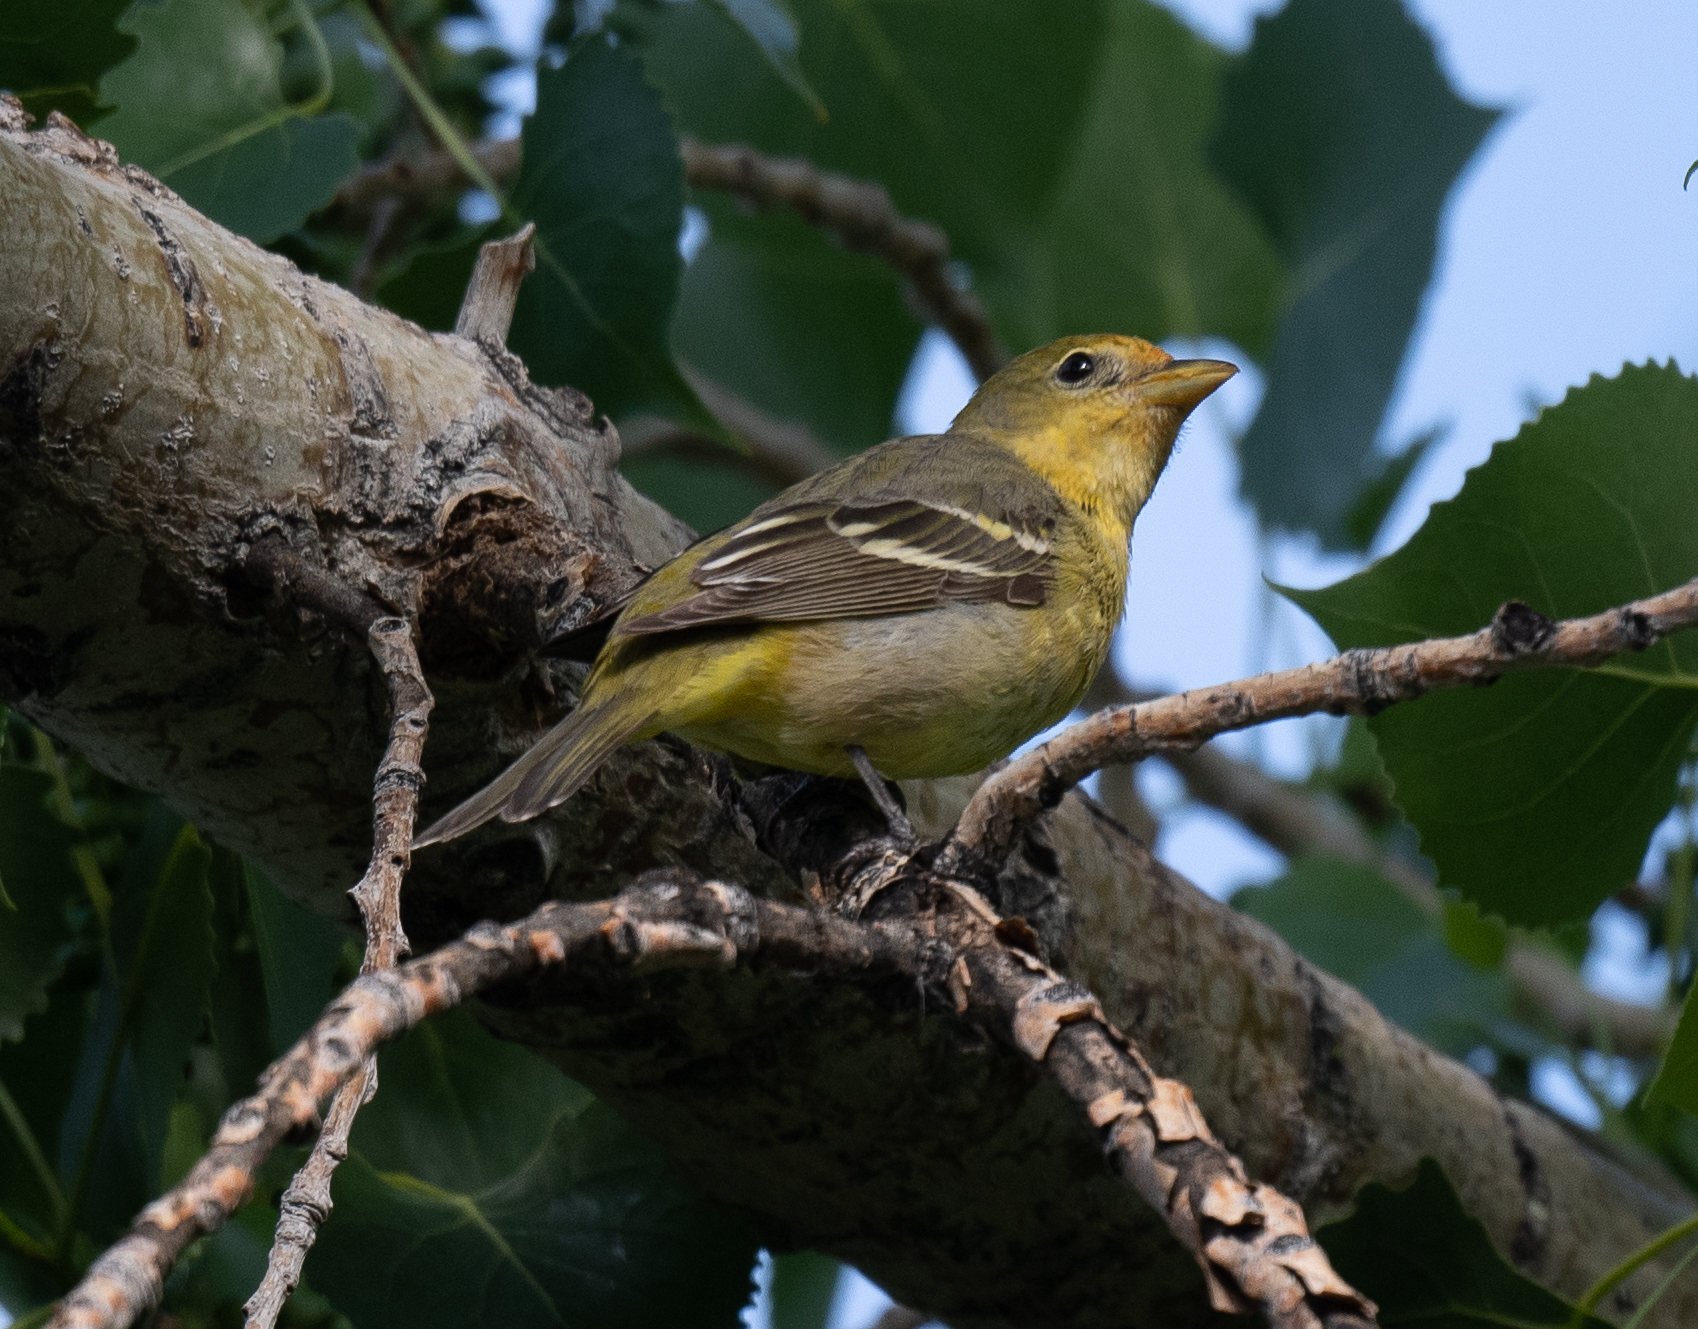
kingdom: Animalia
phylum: Chordata
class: Aves
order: Passeriformes
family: Cardinalidae
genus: Piranga
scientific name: Piranga ludoviciana
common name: Western tanager
